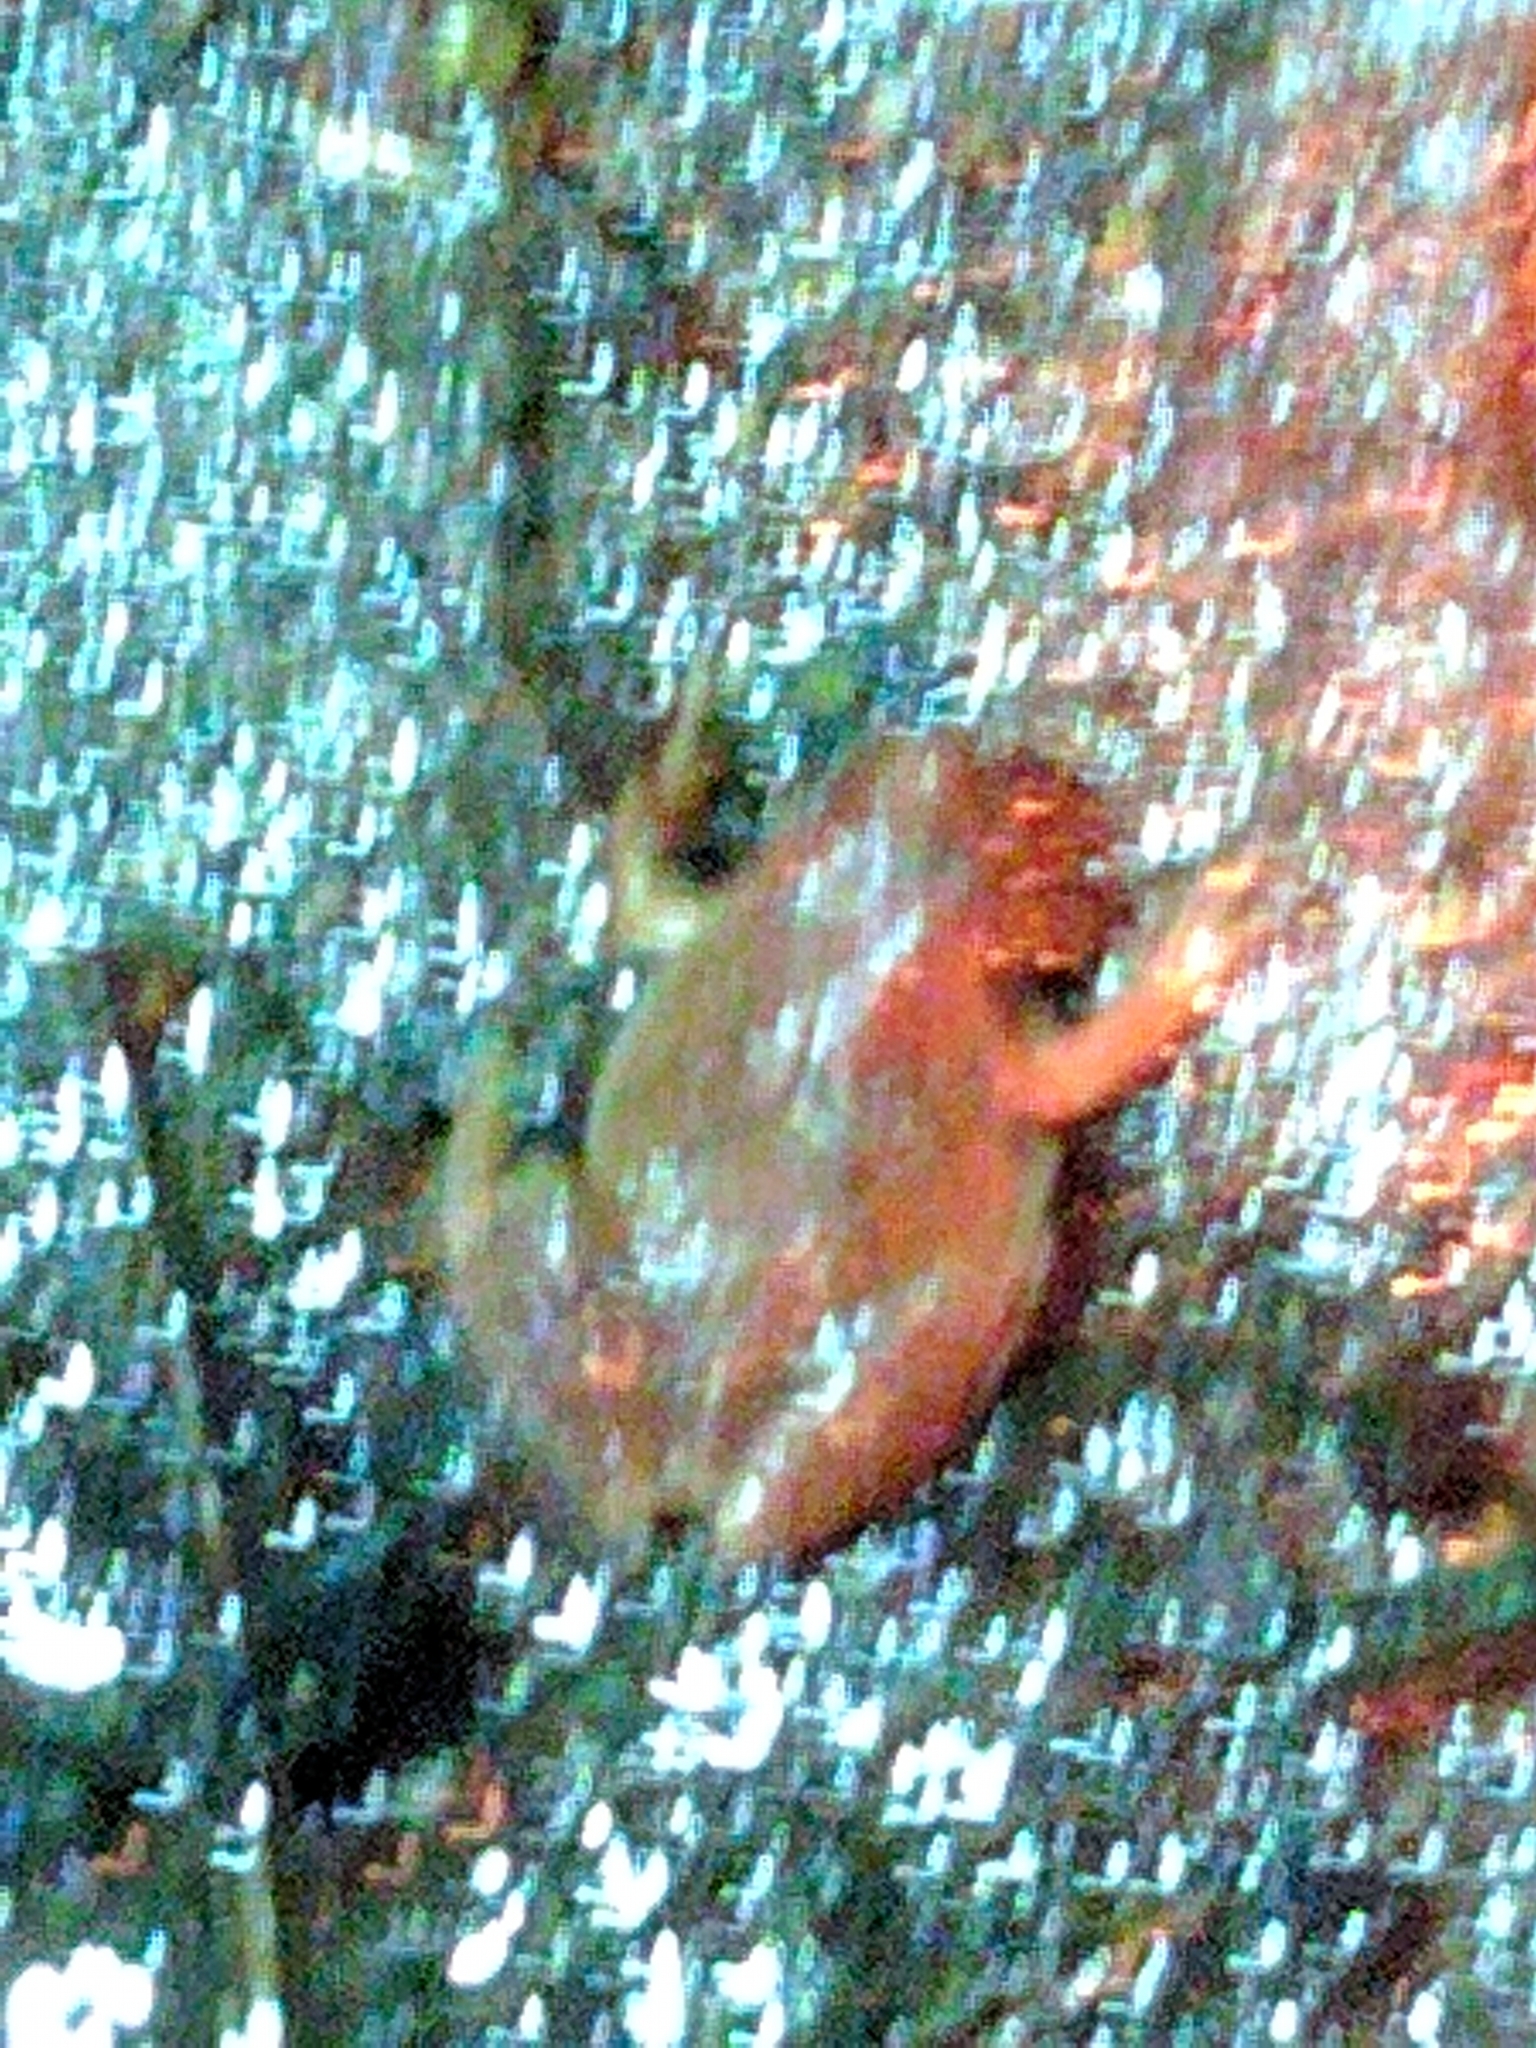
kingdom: Animalia
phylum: Chordata
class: Amphibia
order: Anura
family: Hylidae
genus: Pseudacris
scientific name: Pseudacris crucifer
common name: Spring peeper
